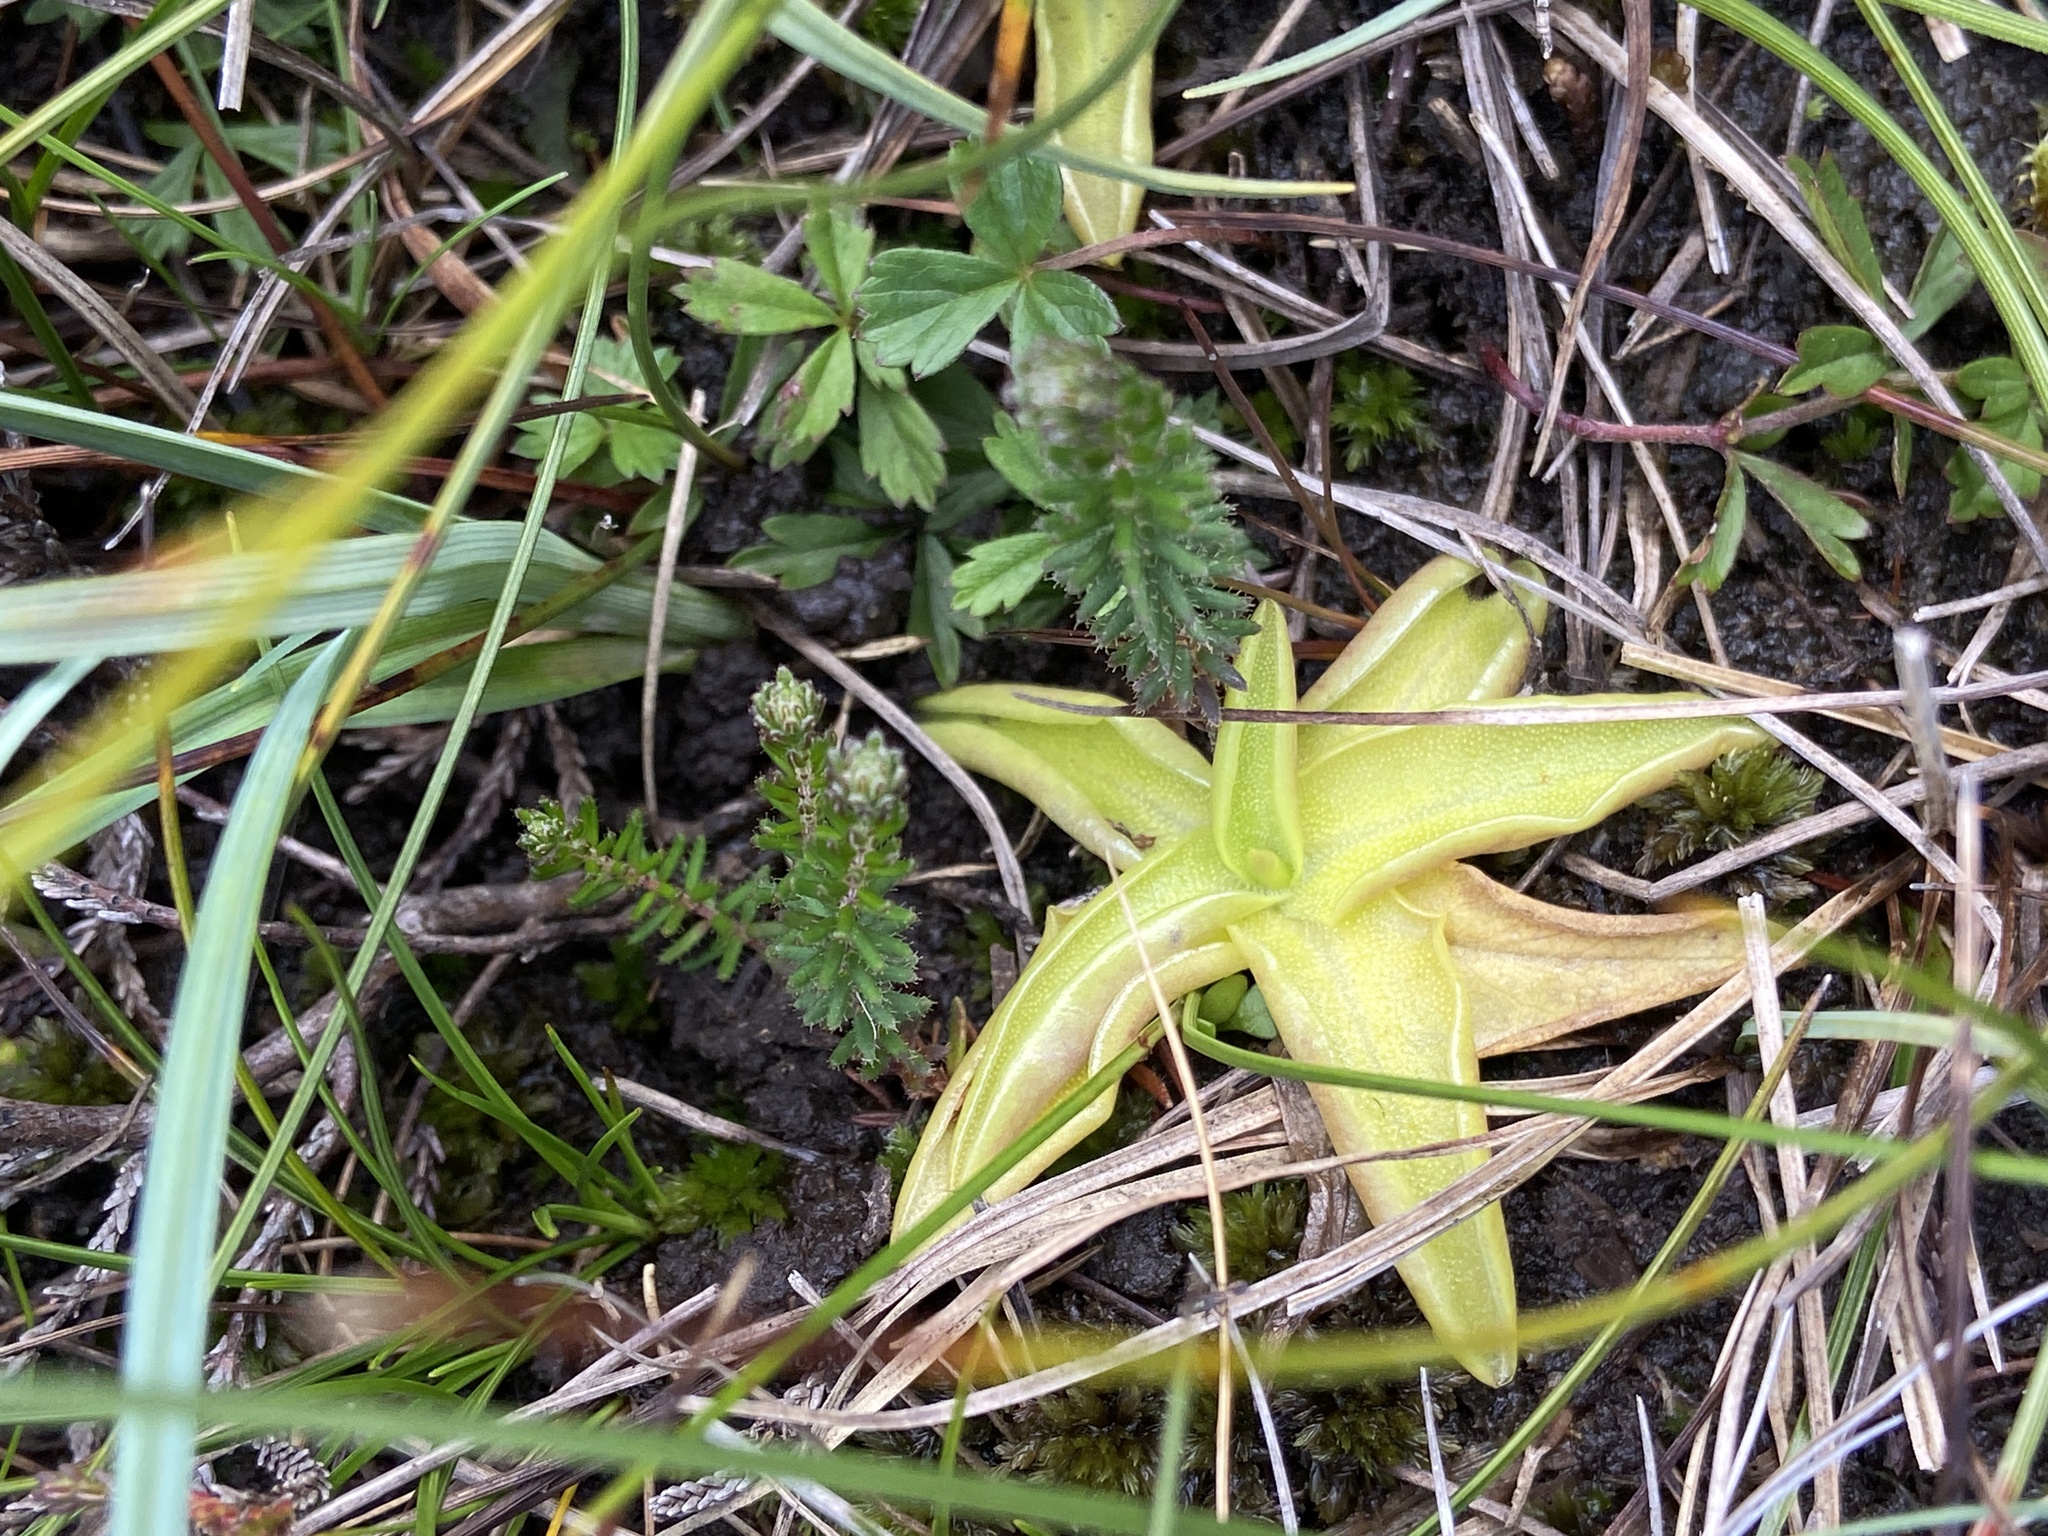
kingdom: Plantae
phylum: Tracheophyta
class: Magnoliopsida
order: Lamiales
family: Lentibulariaceae
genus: Pinguicula
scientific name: Pinguicula vulgaris
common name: Common butterwort
